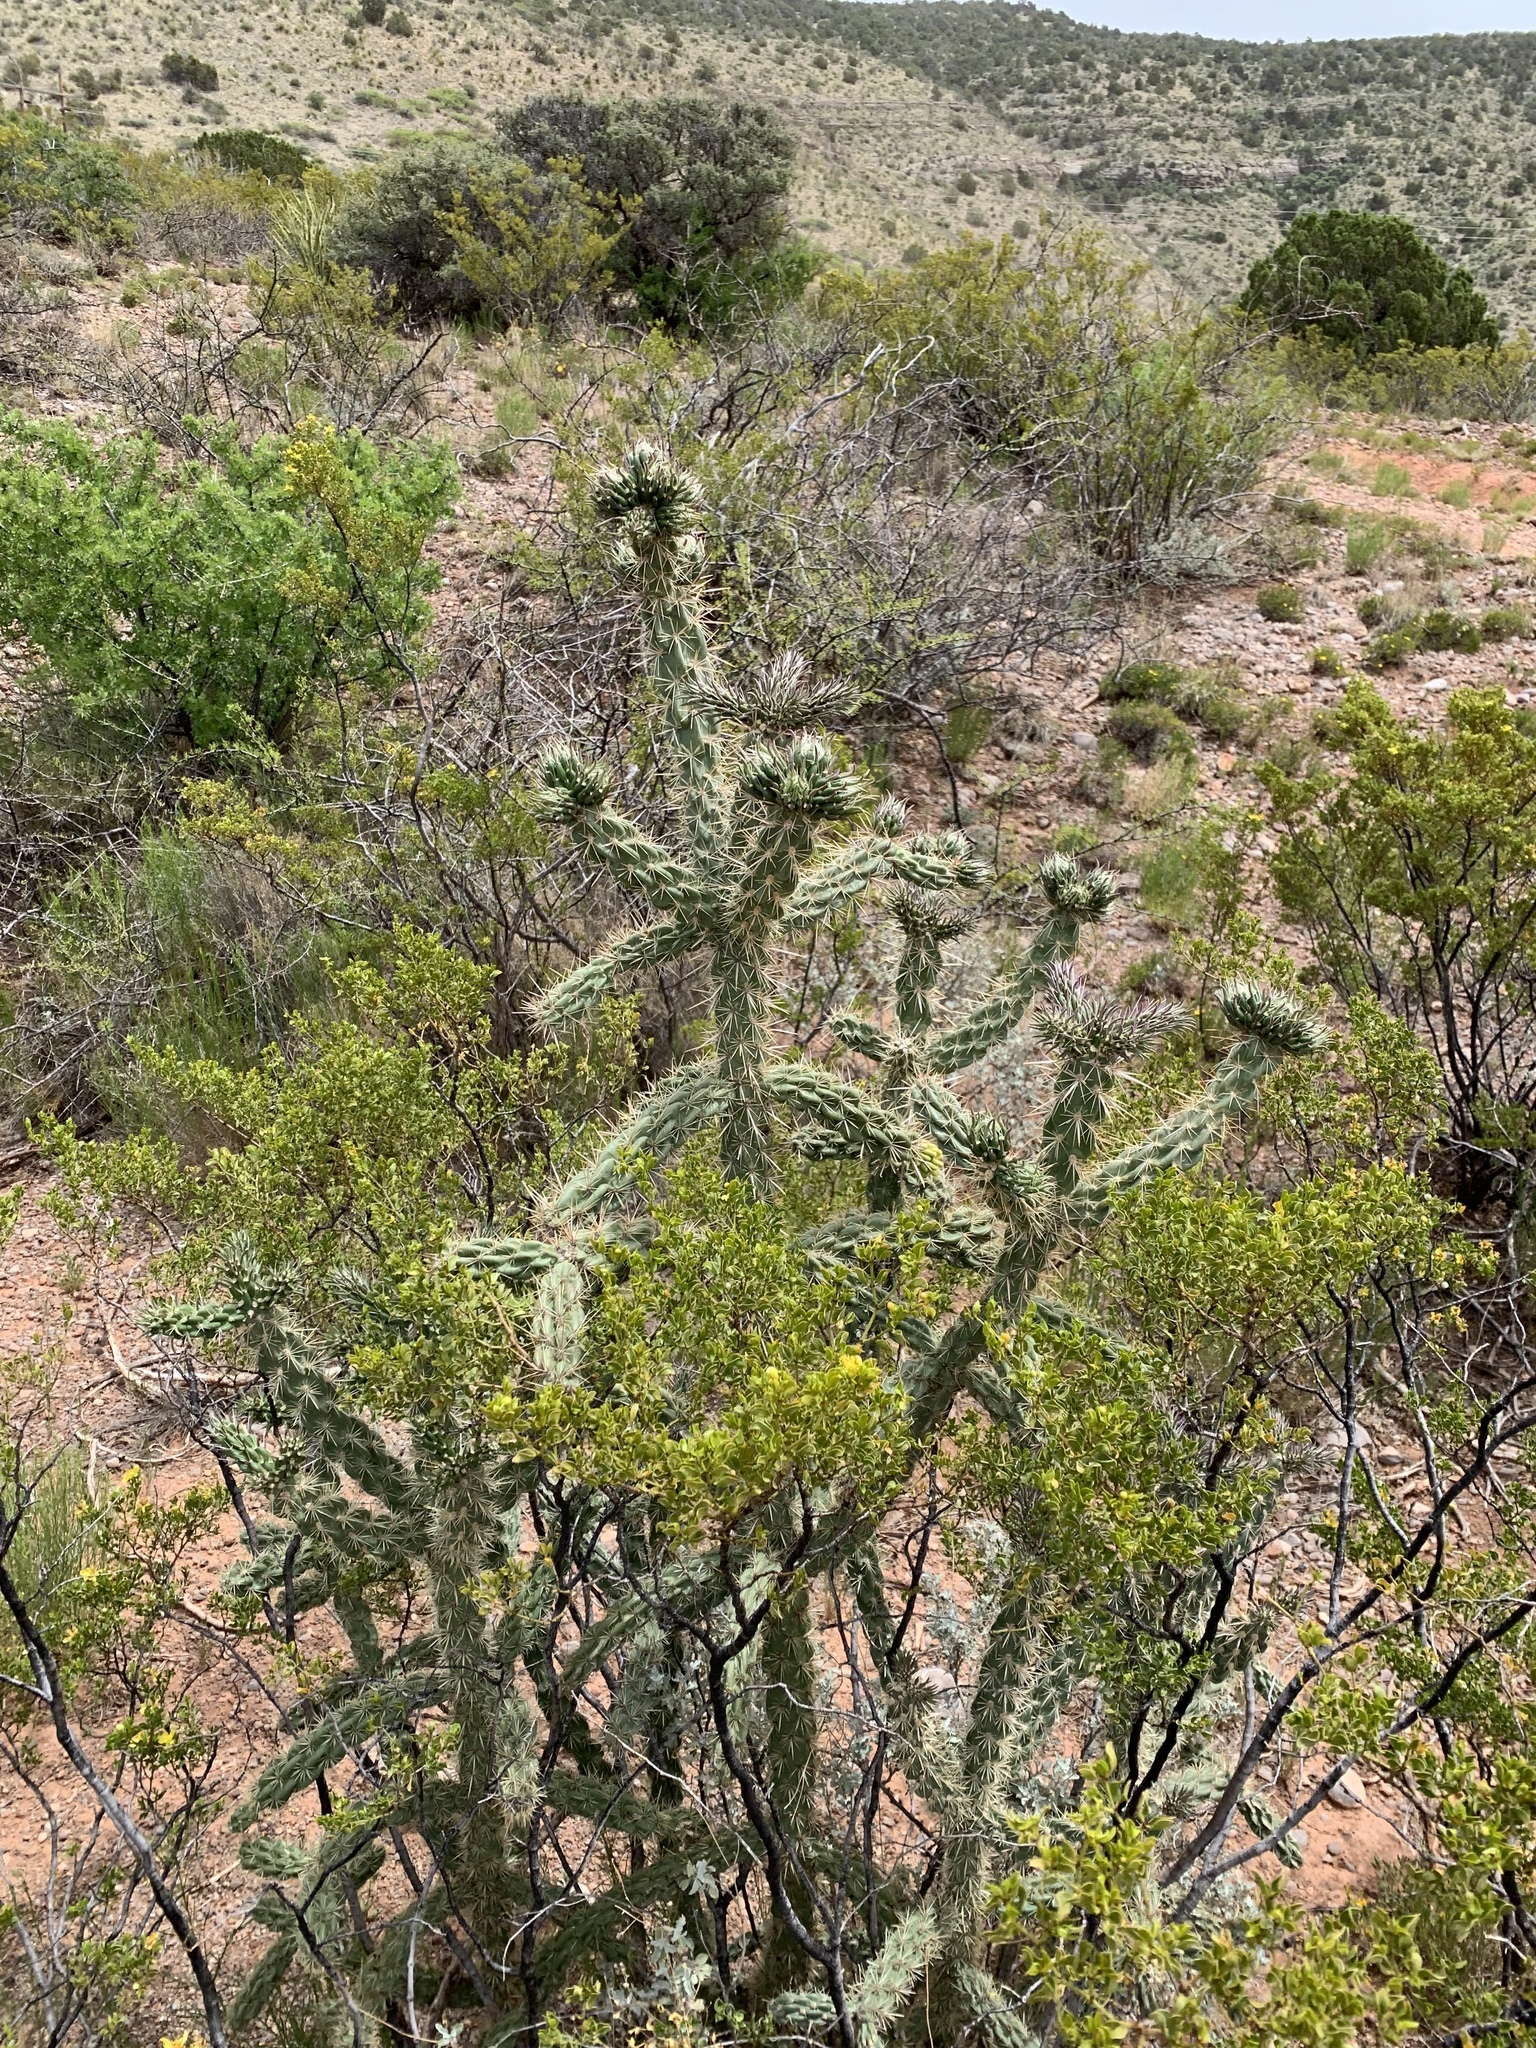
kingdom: Plantae
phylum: Tracheophyta
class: Magnoliopsida
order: Caryophyllales
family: Cactaceae
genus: Cylindropuntia
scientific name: Cylindropuntia imbricata
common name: Candelabrum cactus
